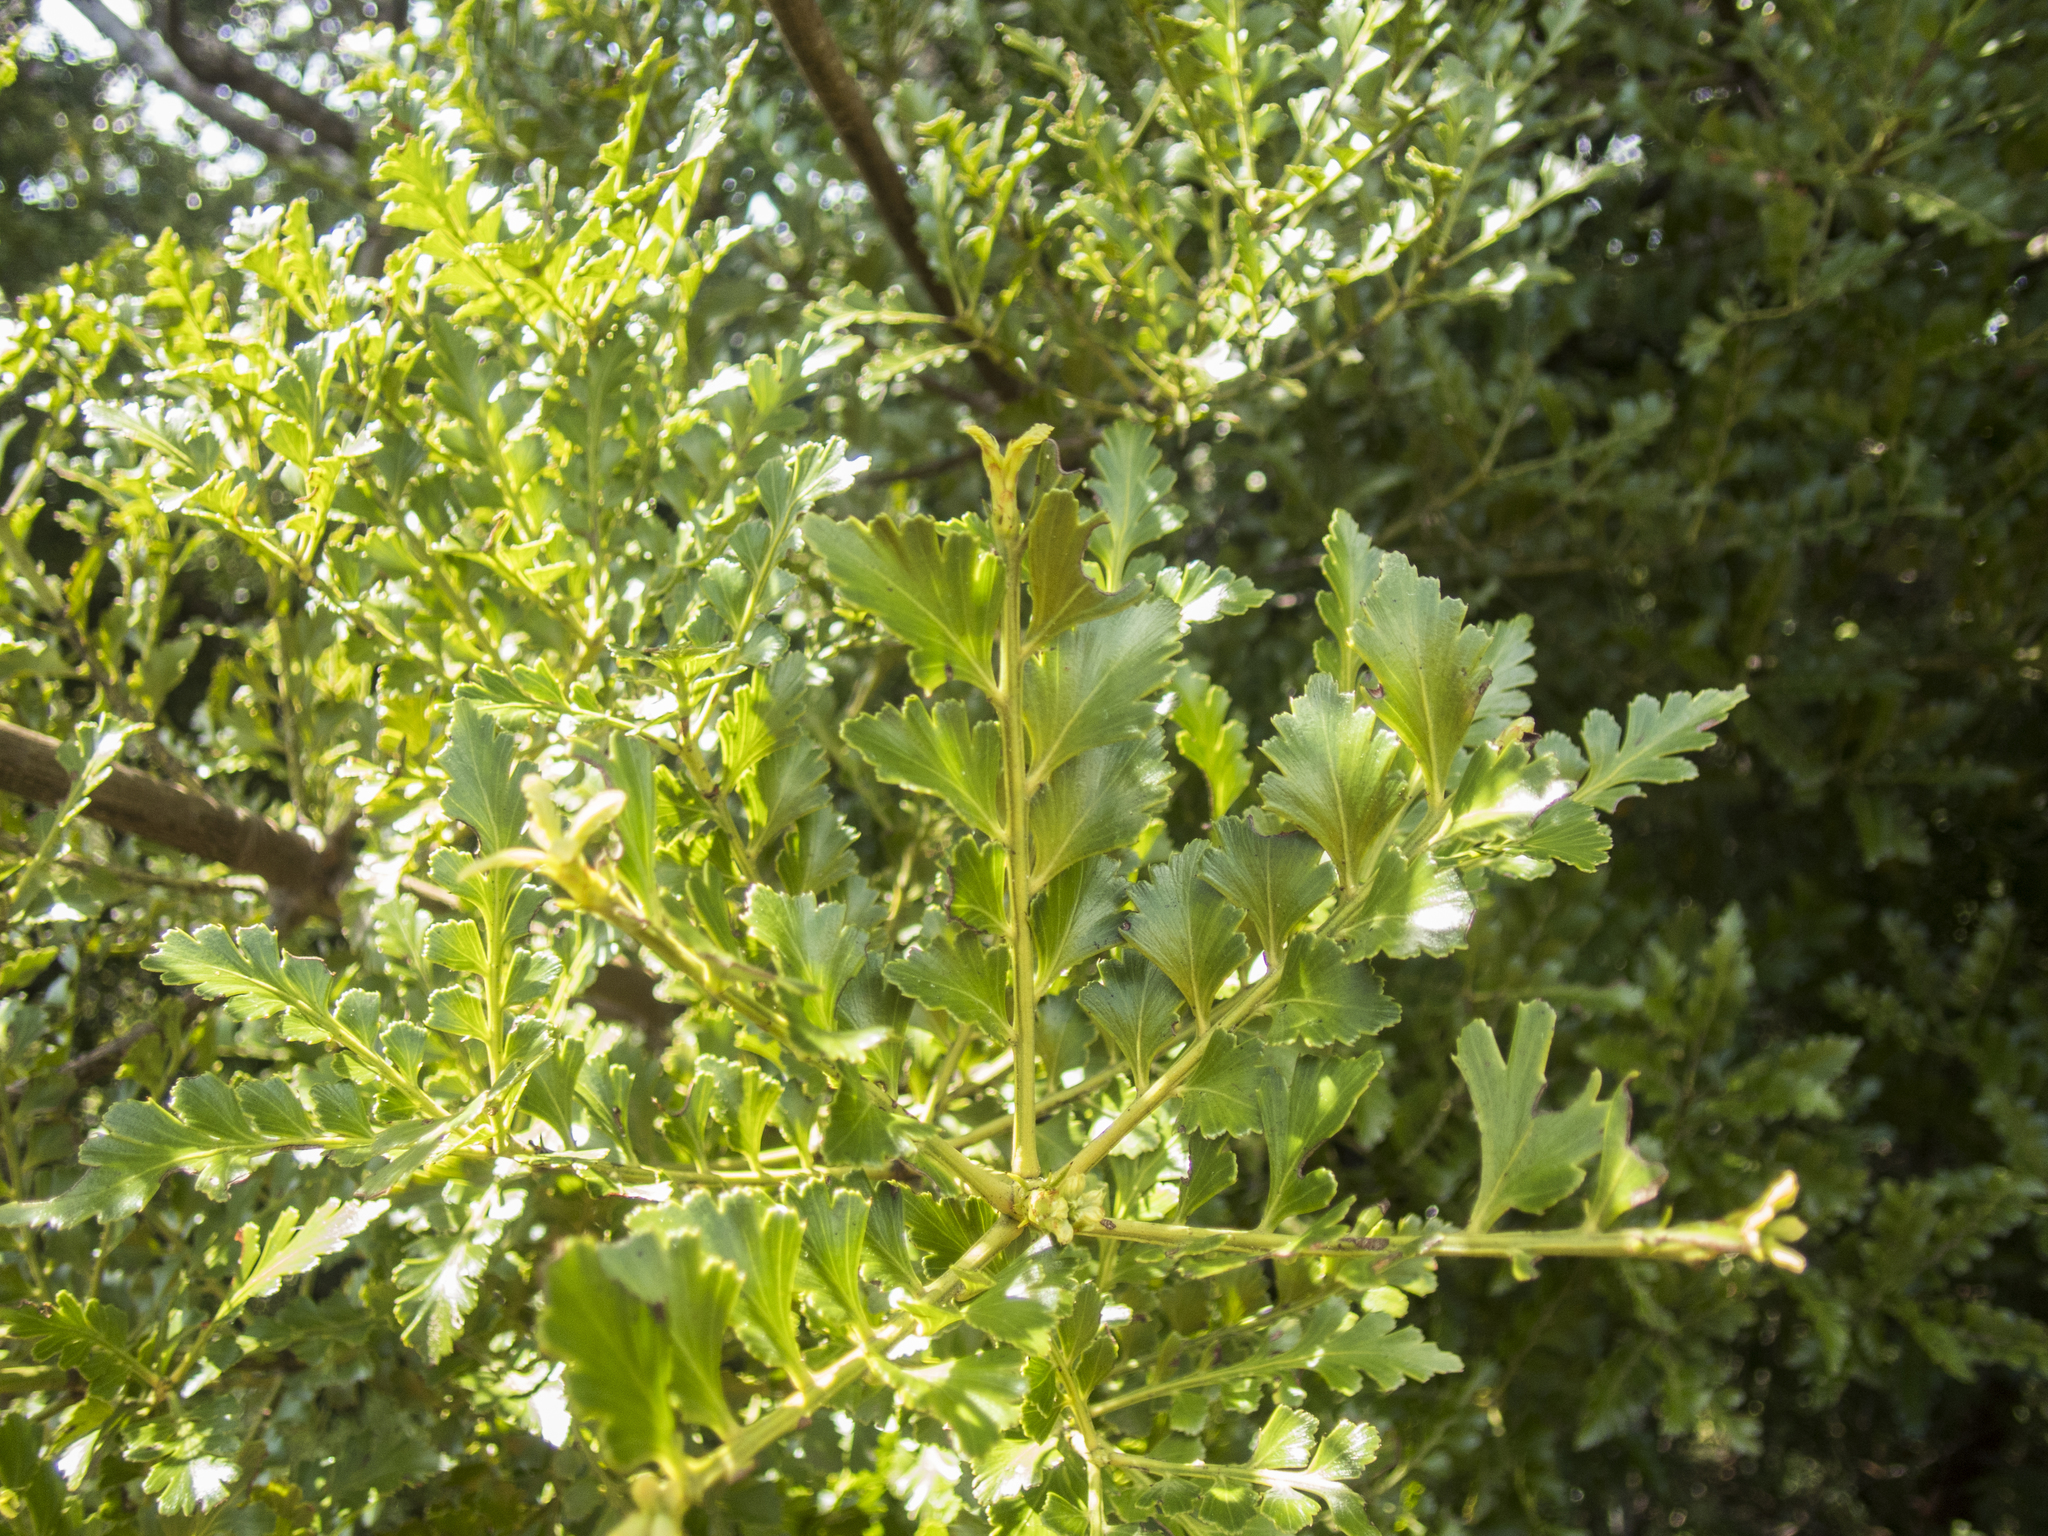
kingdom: Plantae
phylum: Tracheophyta
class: Pinopsida
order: Pinales
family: Phyllocladaceae
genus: Phyllocladus
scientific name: Phyllocladus trichomanoides
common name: Celery pine
